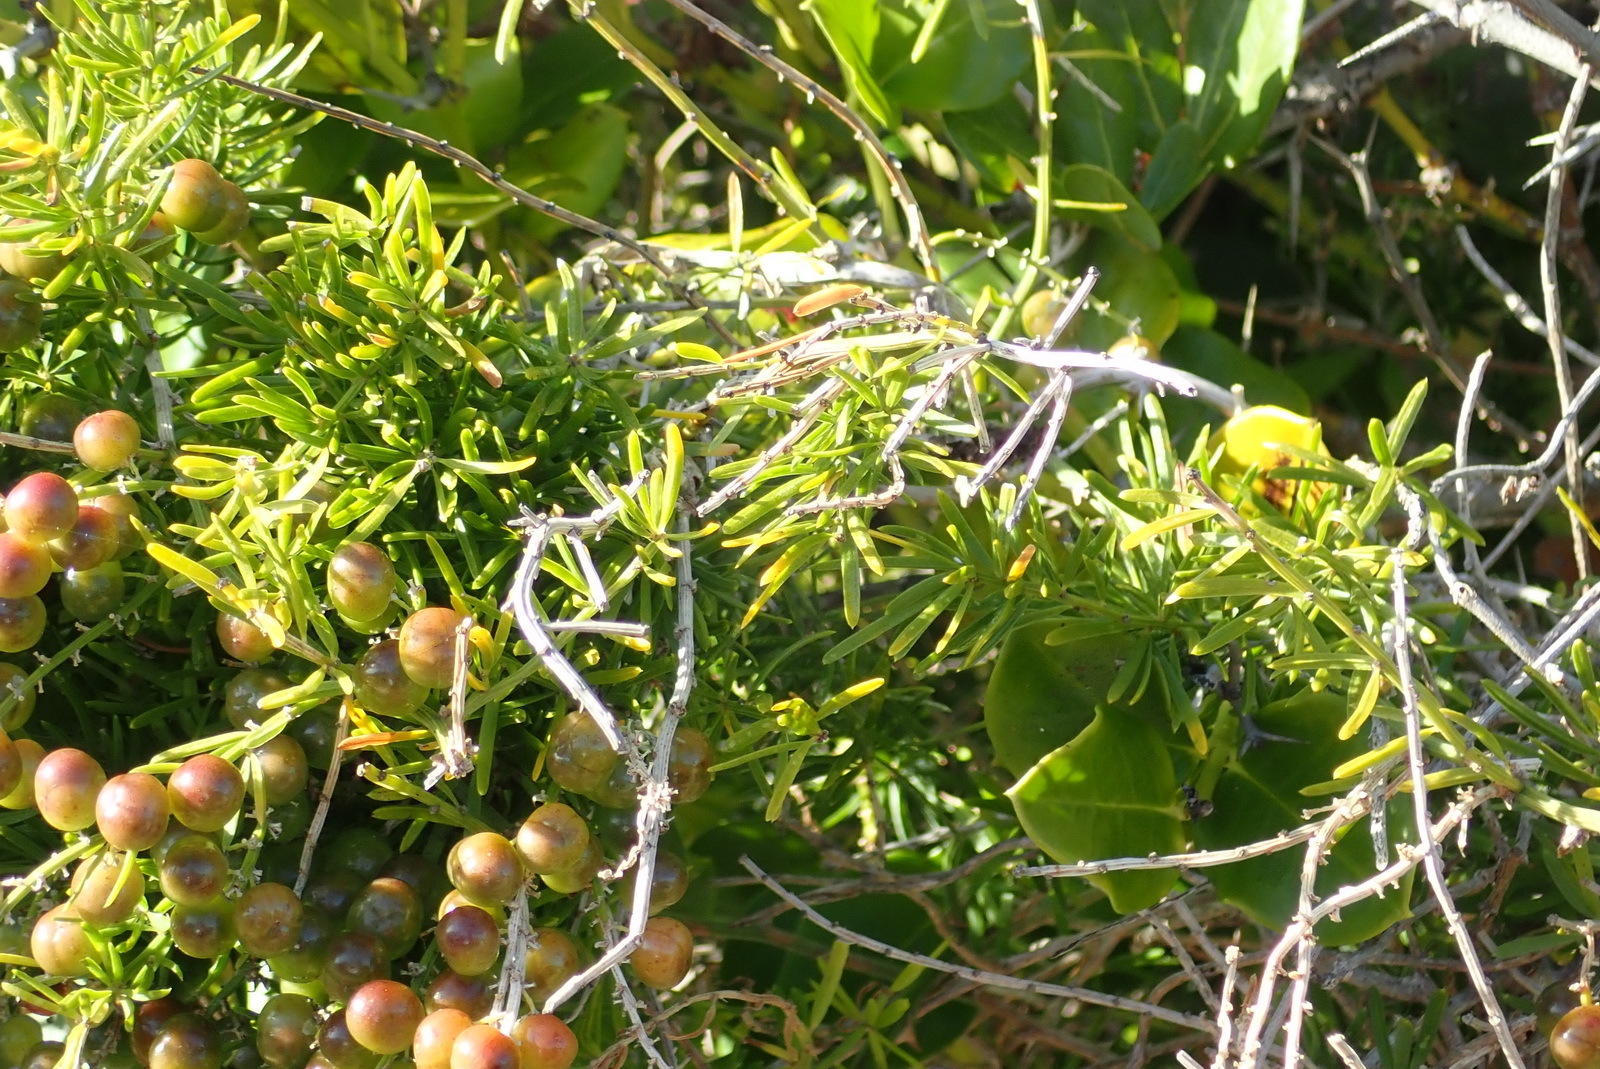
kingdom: Plantae
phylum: Tracheophyta
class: Liliopsida
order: Asparagales
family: Asparagaceae
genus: Asparagus
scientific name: Asparagus densiflorus
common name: Asparagus fern
